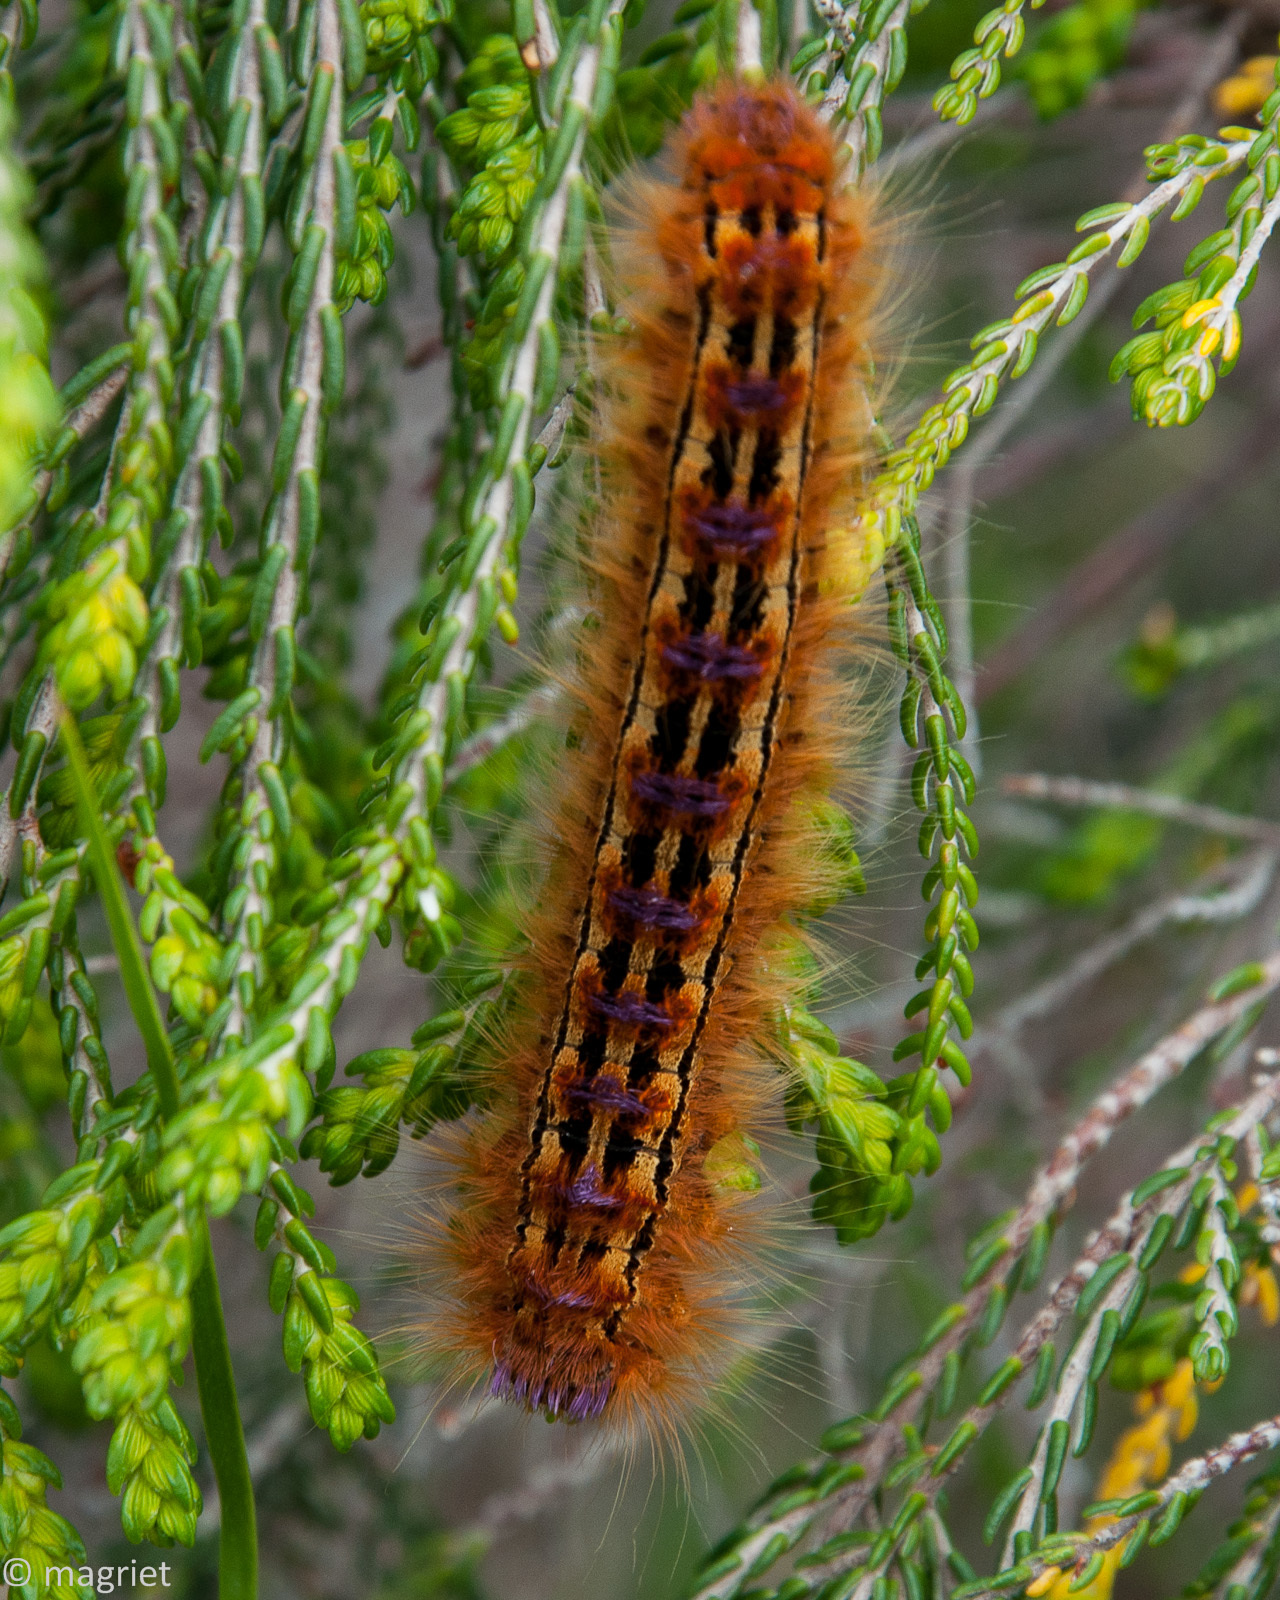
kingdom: Animalia
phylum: Arthropoda
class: Insecta
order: Lepidoptera
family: Lasiocampidae
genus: Eutricha
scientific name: Eutricha bifascia
